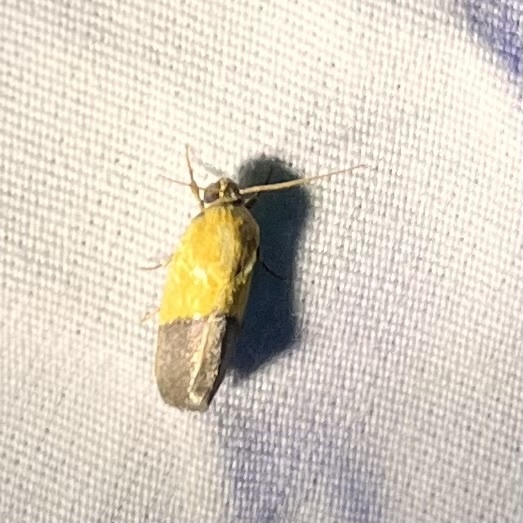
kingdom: Animalia
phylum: Arthropoda
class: Insecta
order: Lepidoptera
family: Noctuidae
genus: Acontia
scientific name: Acontia semiflava
